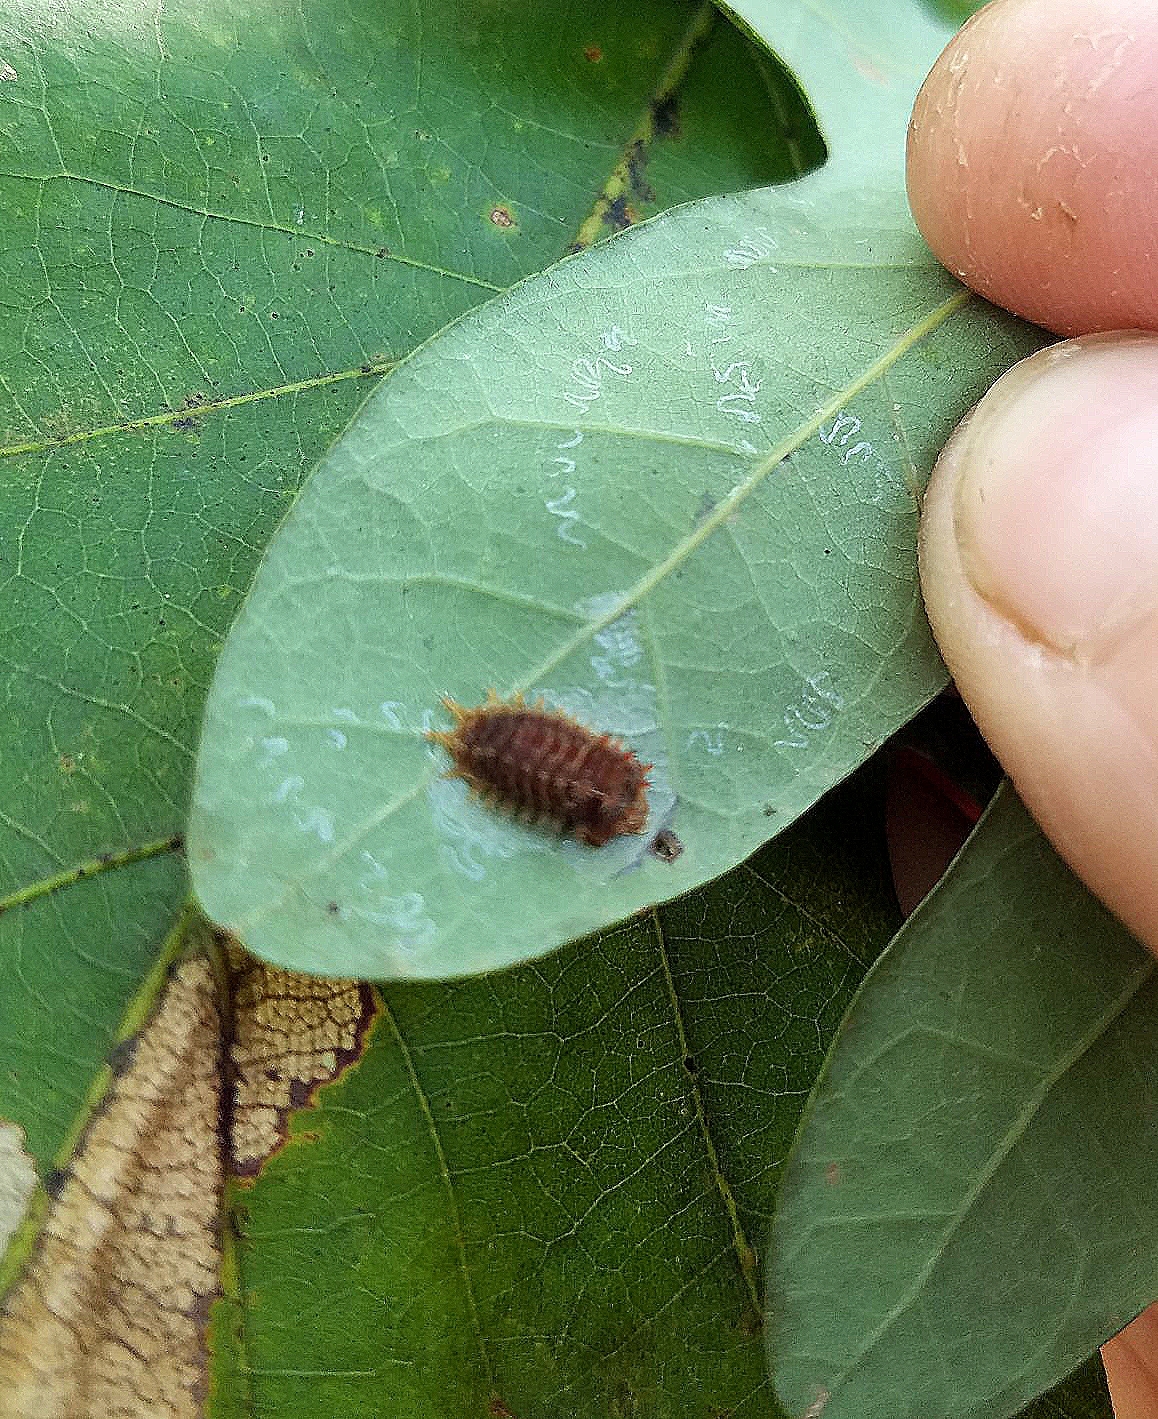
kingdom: Animalia
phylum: Arthropoda
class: Insecta
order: Lepidoptera
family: Limacodidae
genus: Natada
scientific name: Natada nasoni
